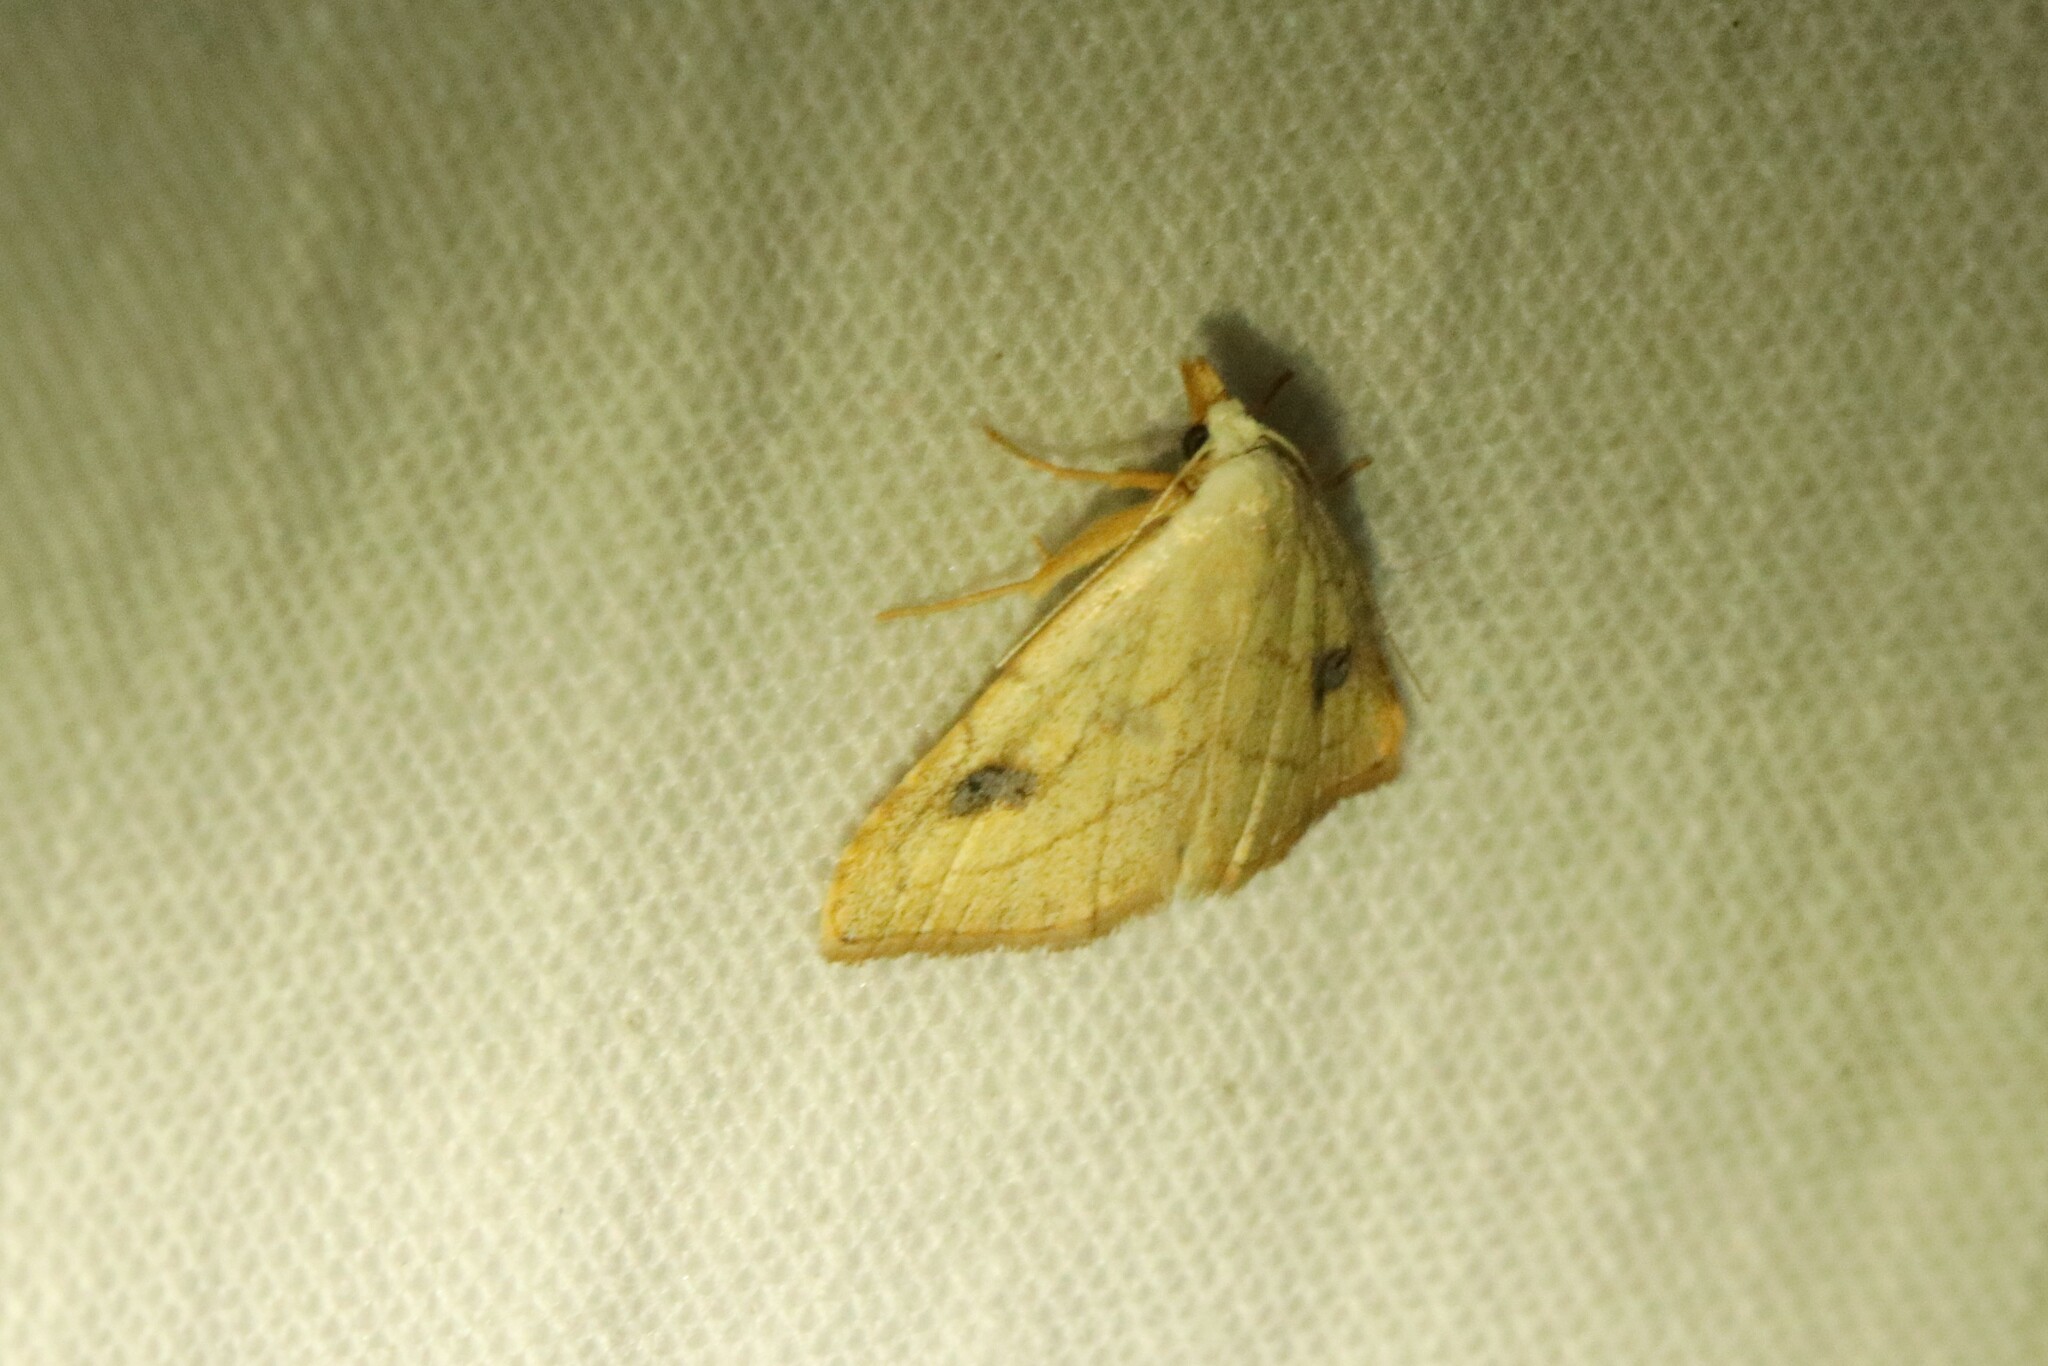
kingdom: Animalia
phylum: Arthropoda
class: Insecta
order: Lepidoptera
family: Erebidae
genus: Rivula
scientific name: Rivula propinqualis
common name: Spotted grass moth
